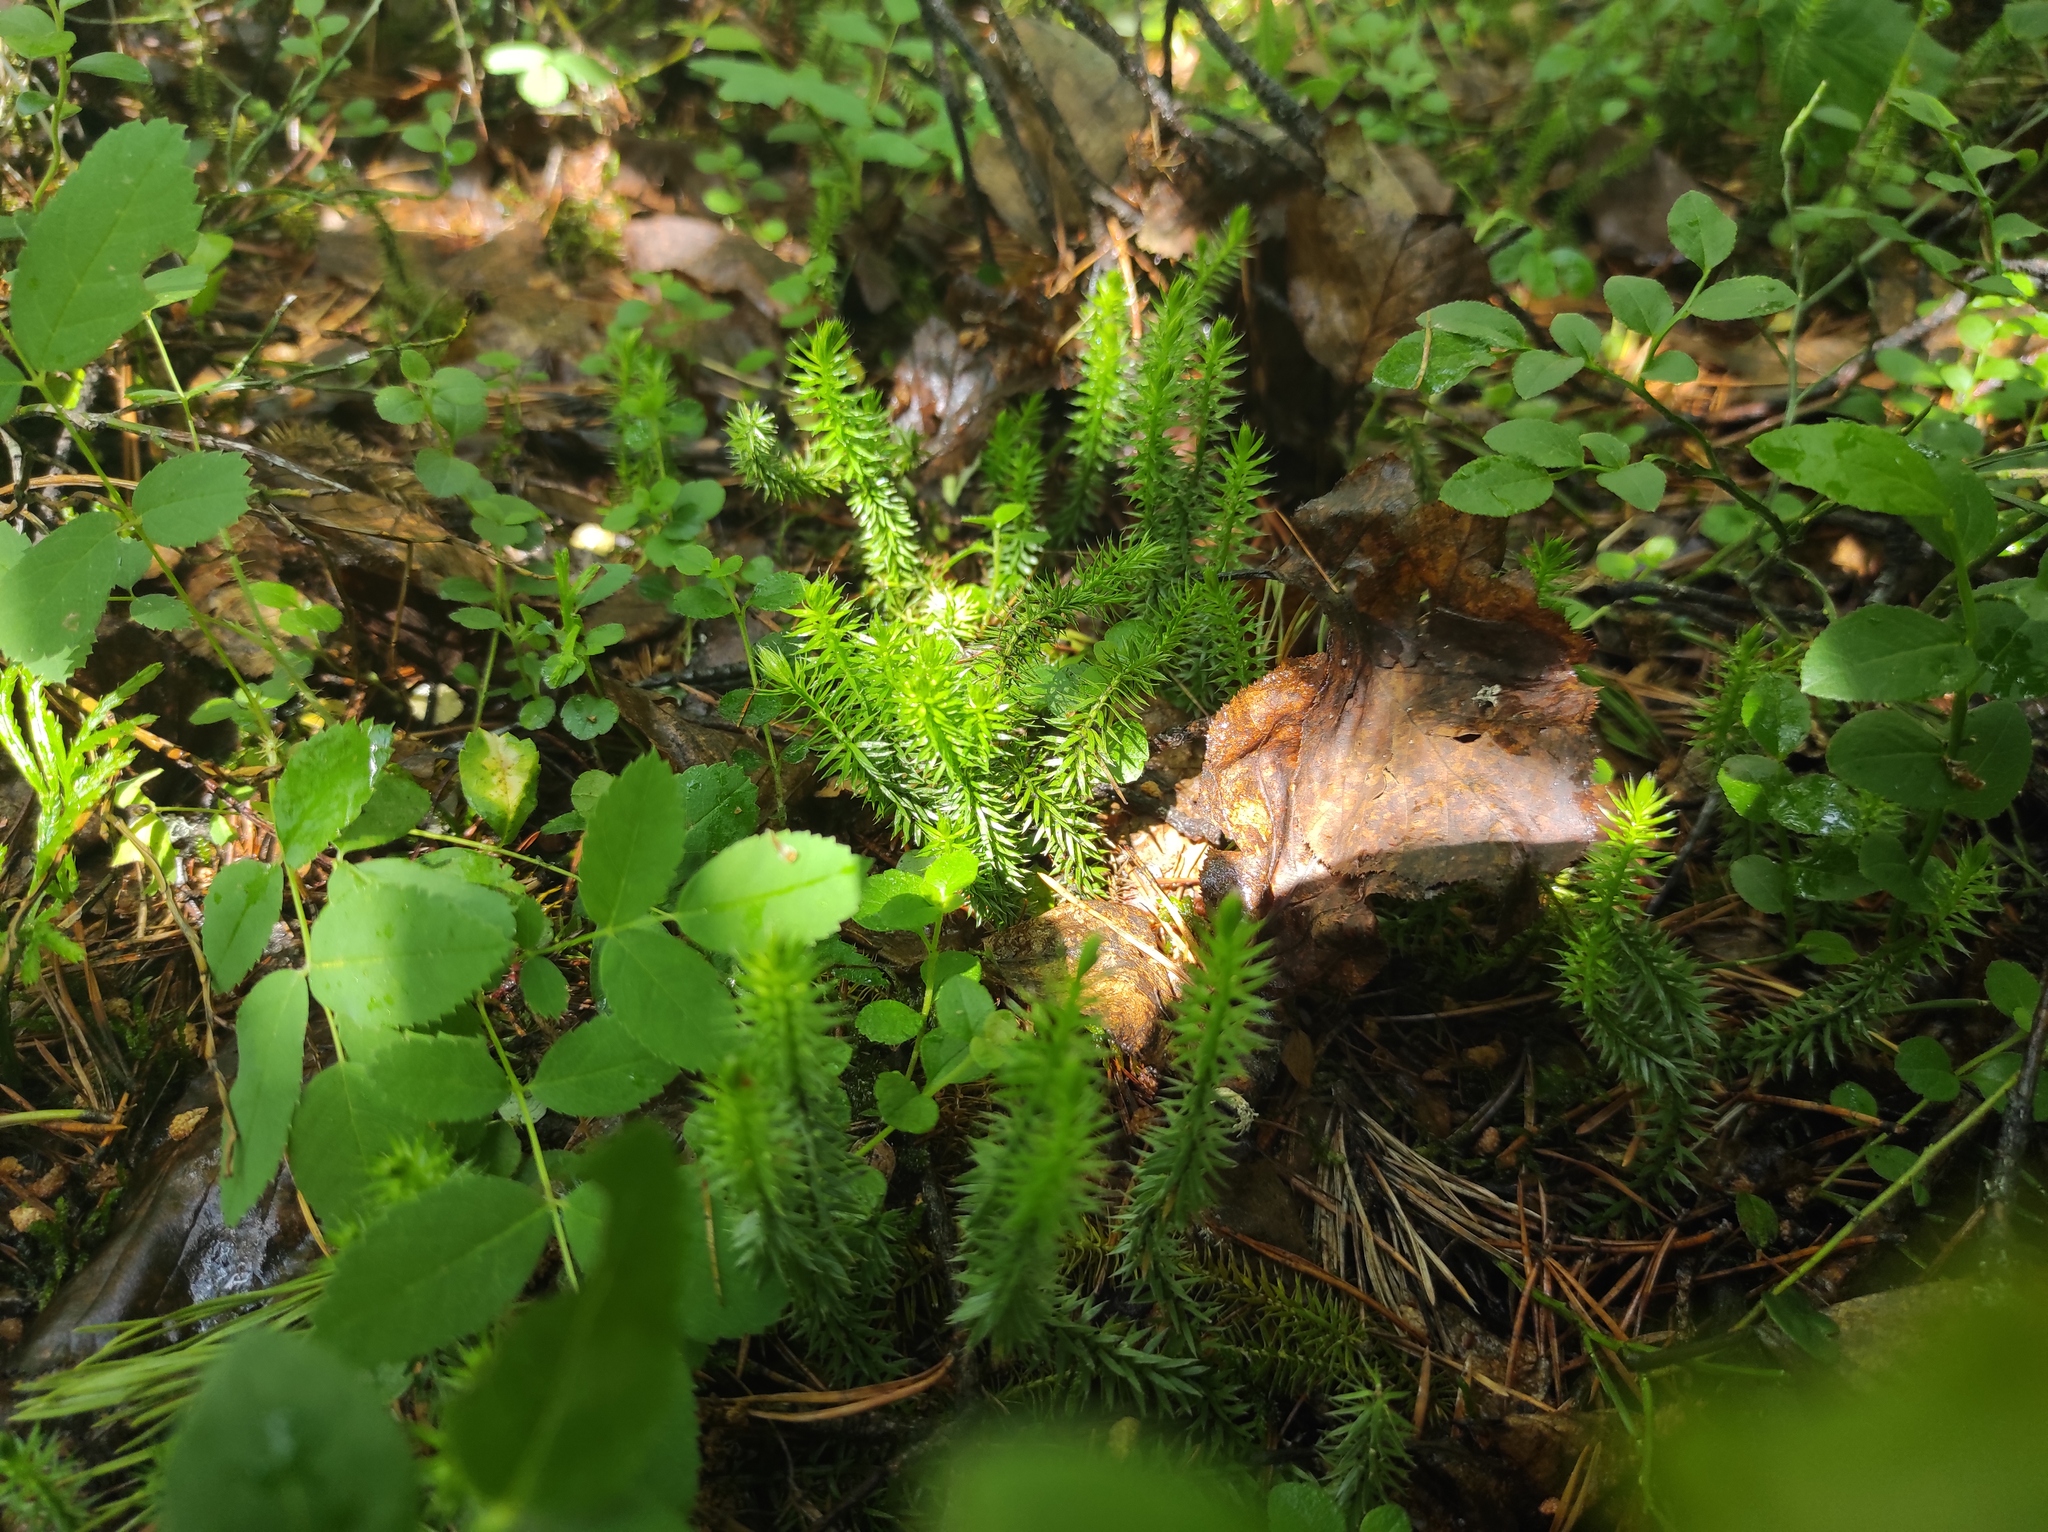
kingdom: Plantae
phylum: Tracheophyta
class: Lycopodiopsida
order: Lycopodiales
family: Lycopodiaceae
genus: Spinulum
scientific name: Spinulum annotinum
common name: Interrupted club-moss
